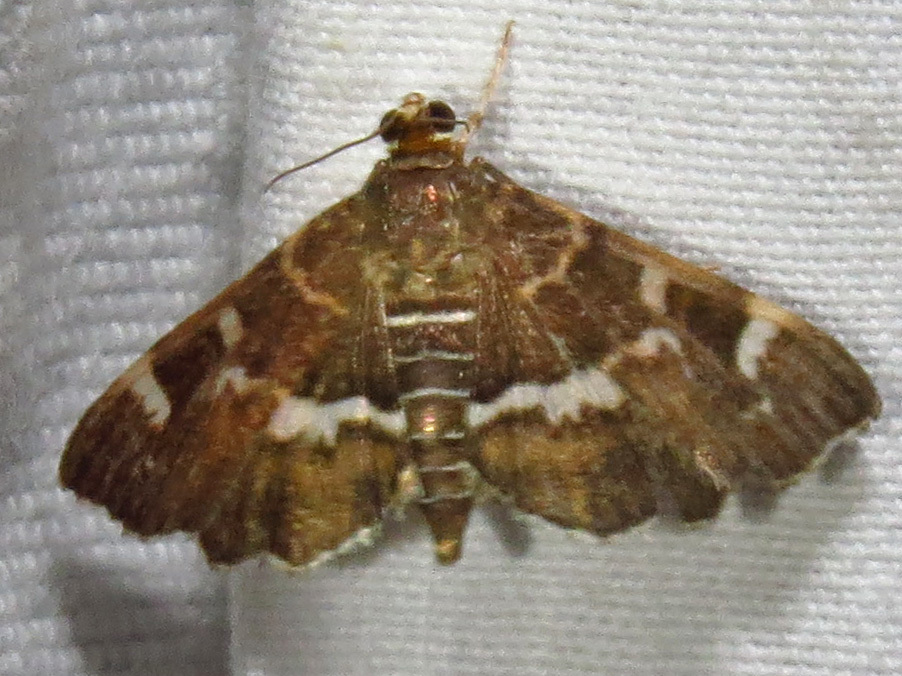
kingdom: Animalia
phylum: Arthropoda
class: Insecta
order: Lepidoptera
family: Crambidae
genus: Hymenia
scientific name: Hymenia perspectalis
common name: Spotted beet webworm
